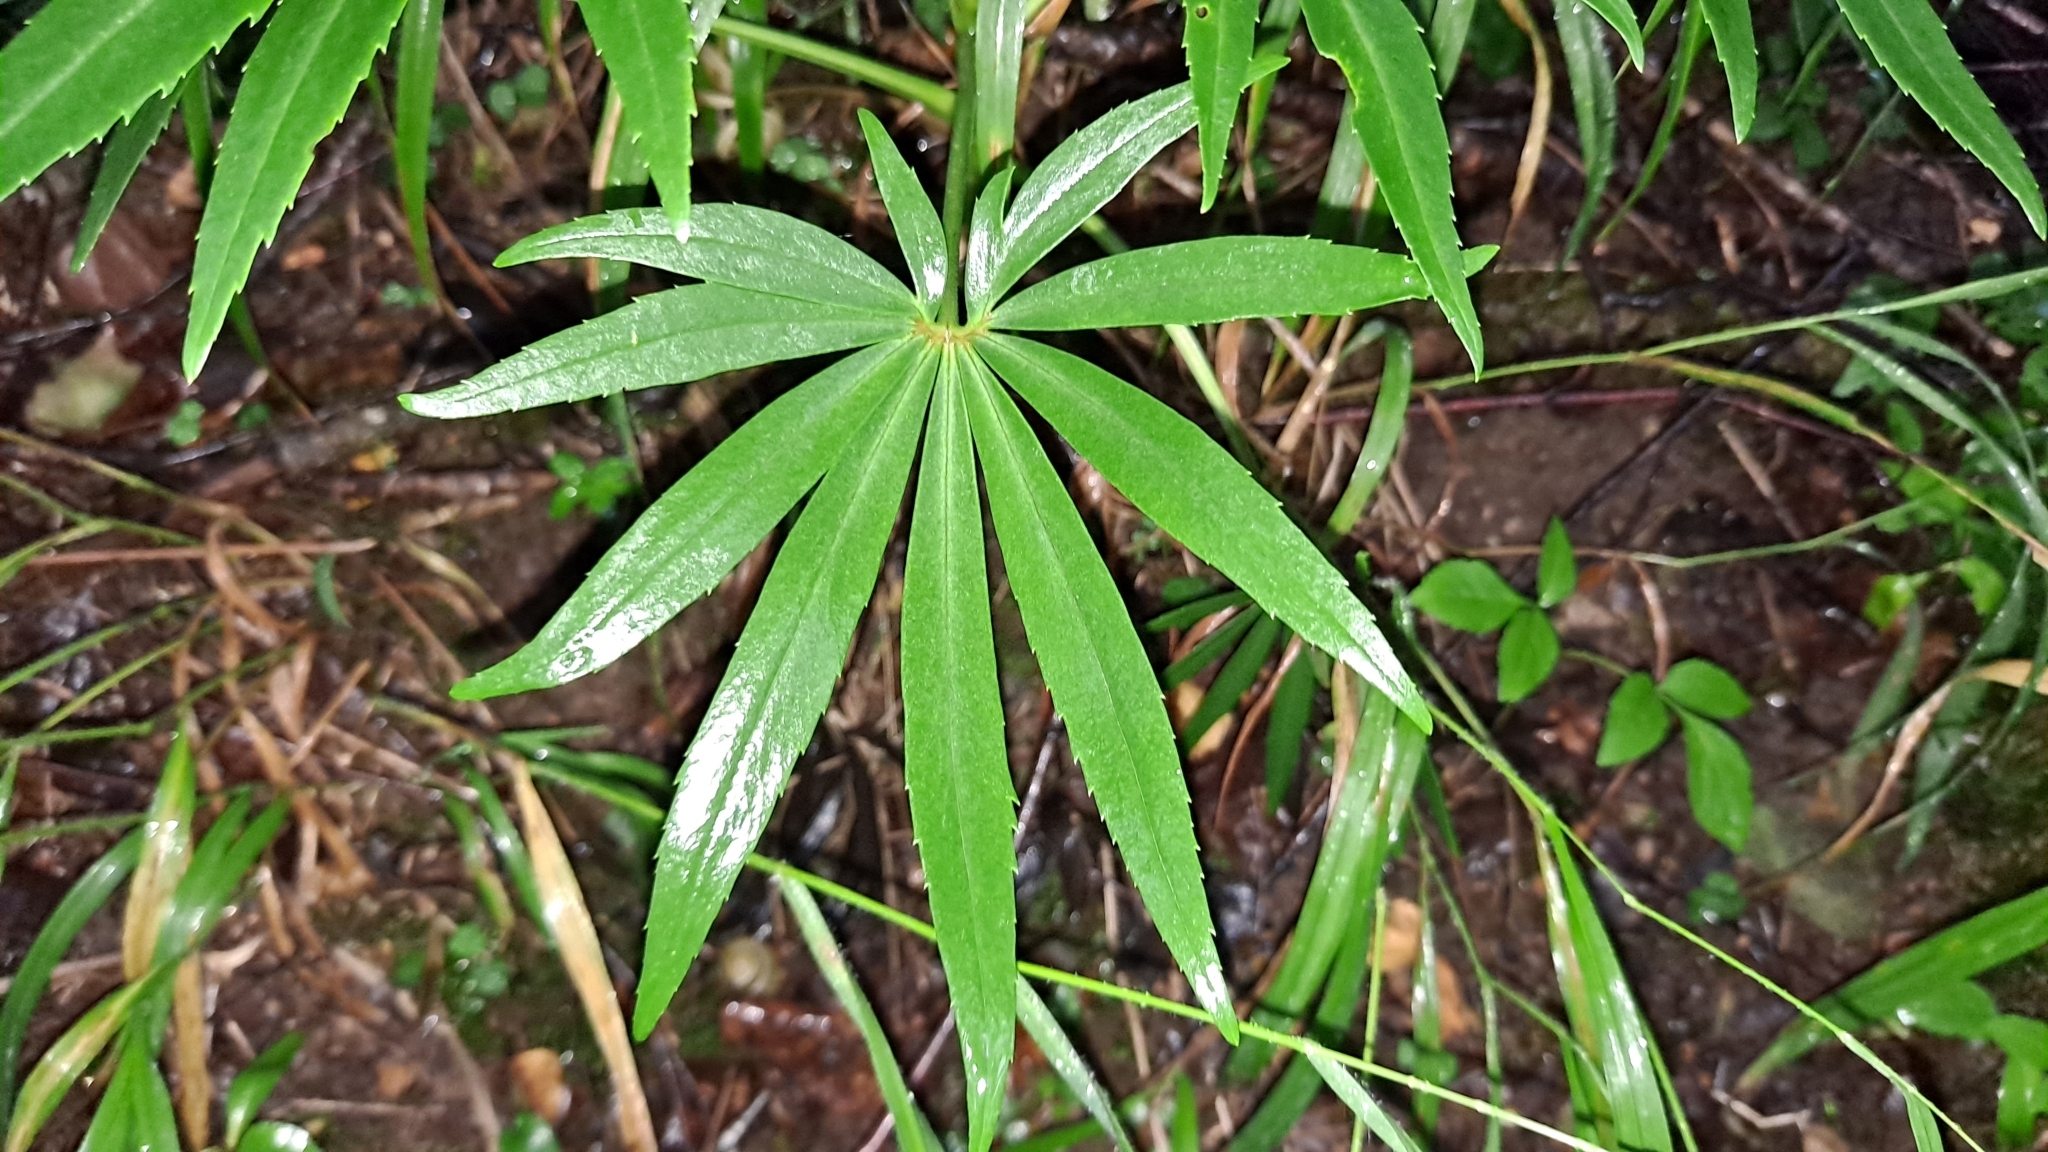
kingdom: Plantae
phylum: Tracheophyta
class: Magnoliopsida
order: Ranunculales
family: Ranunculaceae
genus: Helleborus
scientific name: Helleborus foetidus
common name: Stinking hellebore
